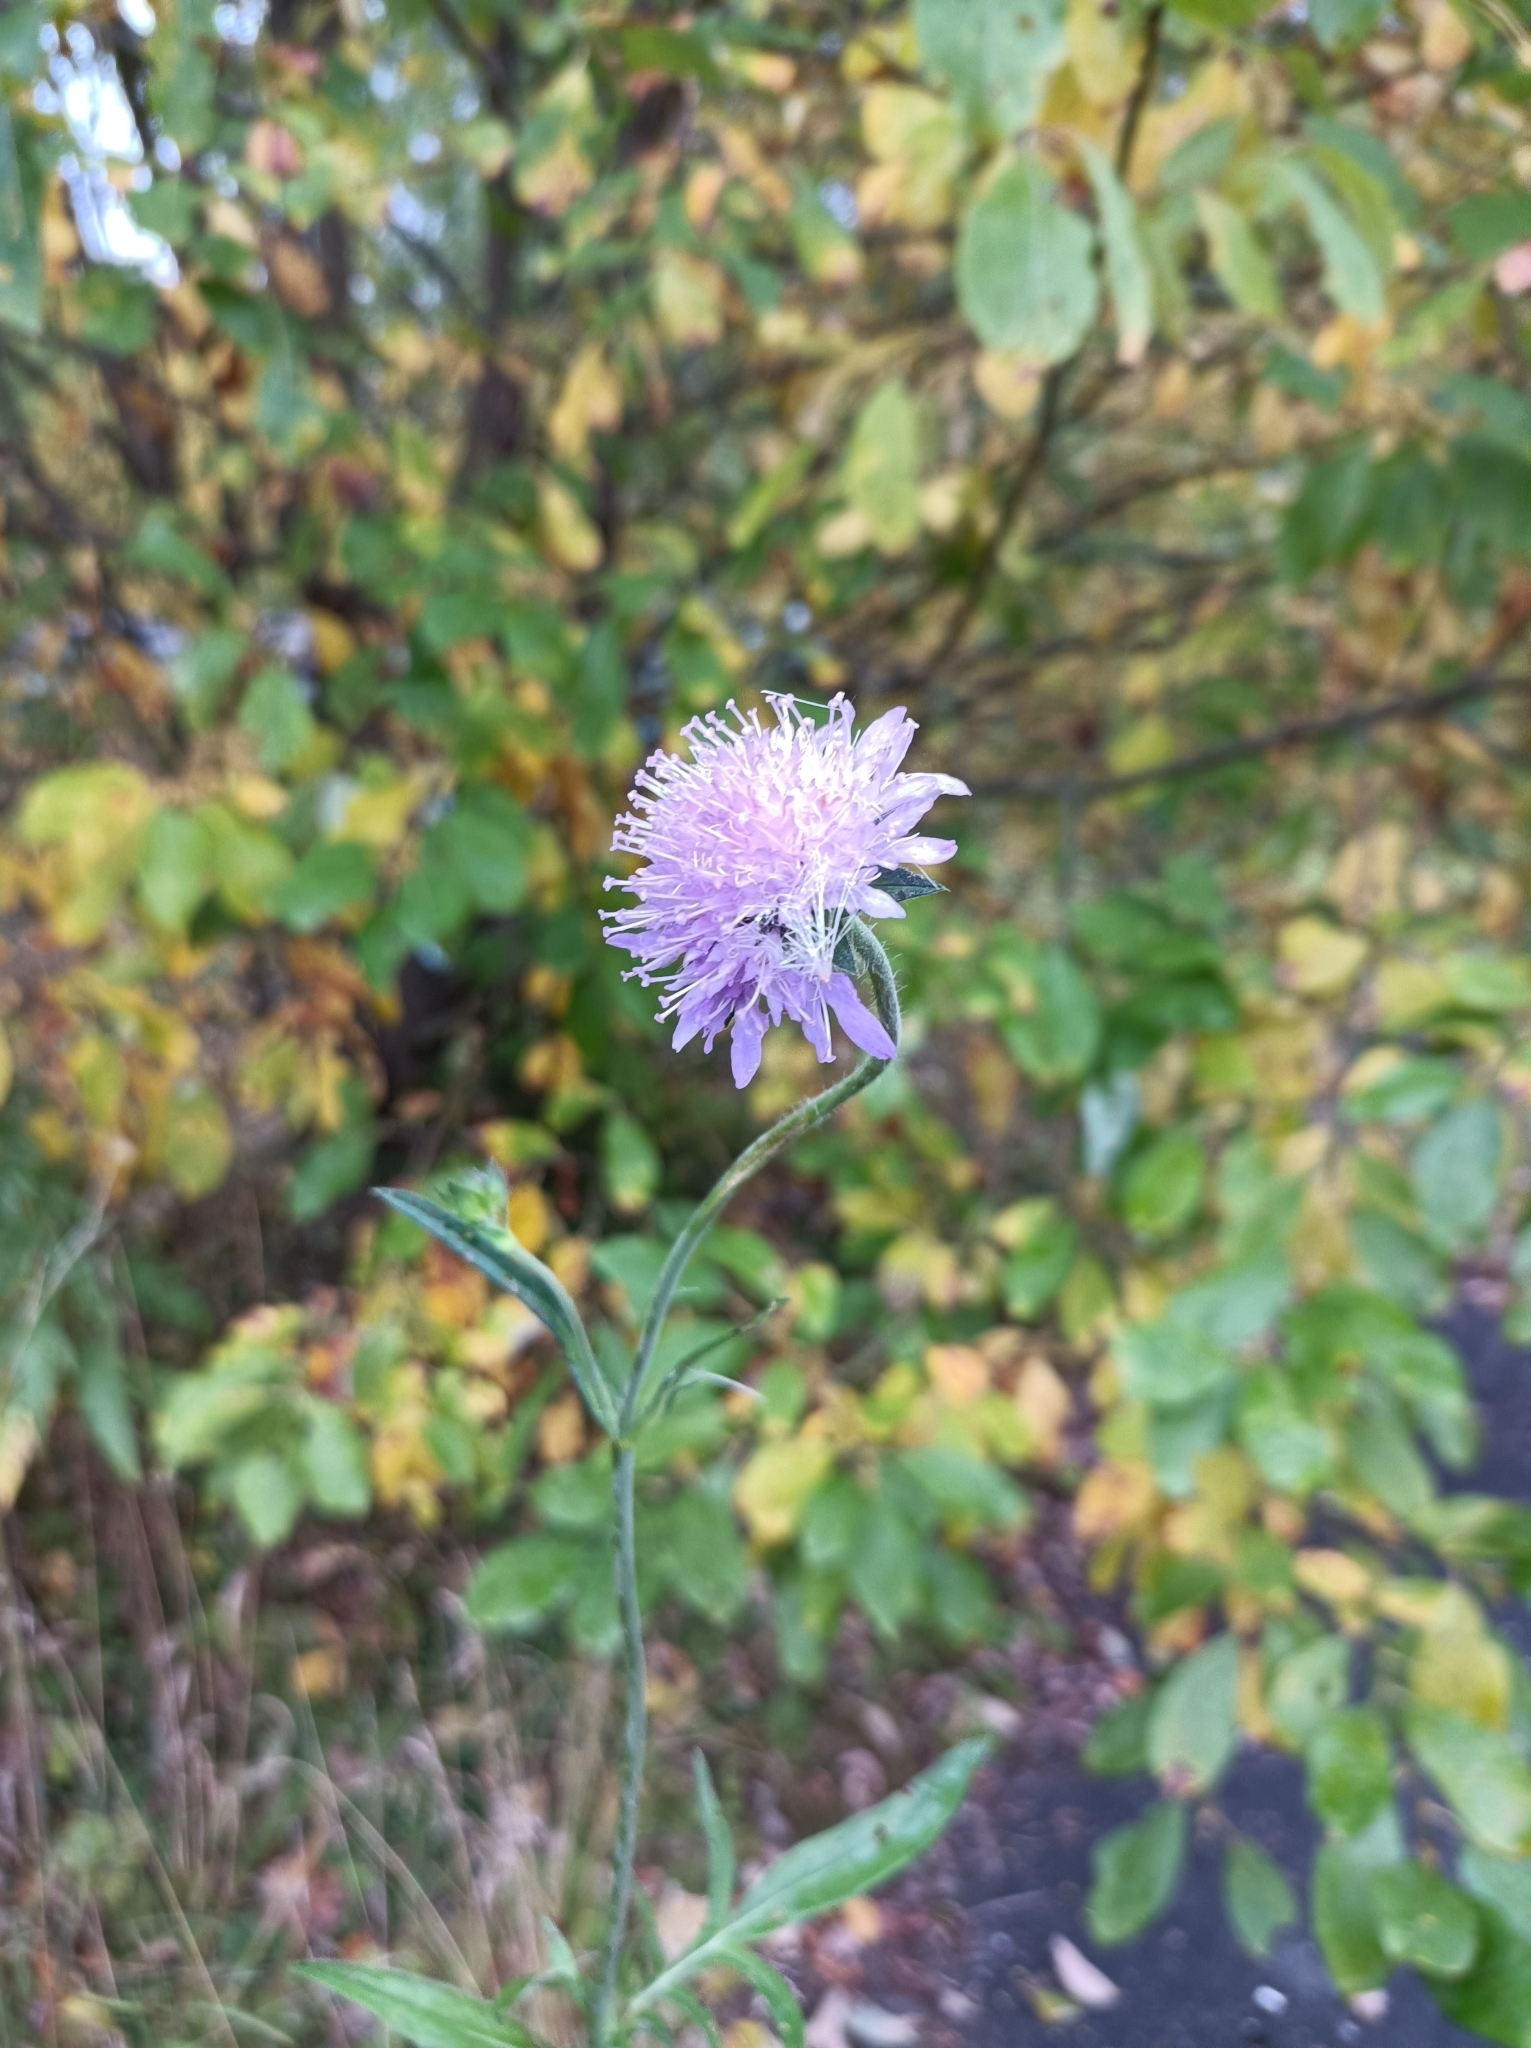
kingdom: Plantae
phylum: Tracheophyta
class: Magnoliopsida
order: Dipsacales
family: Caprifoliaceae
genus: Knautia
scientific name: Knautia arvensis
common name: Field scabiosa
